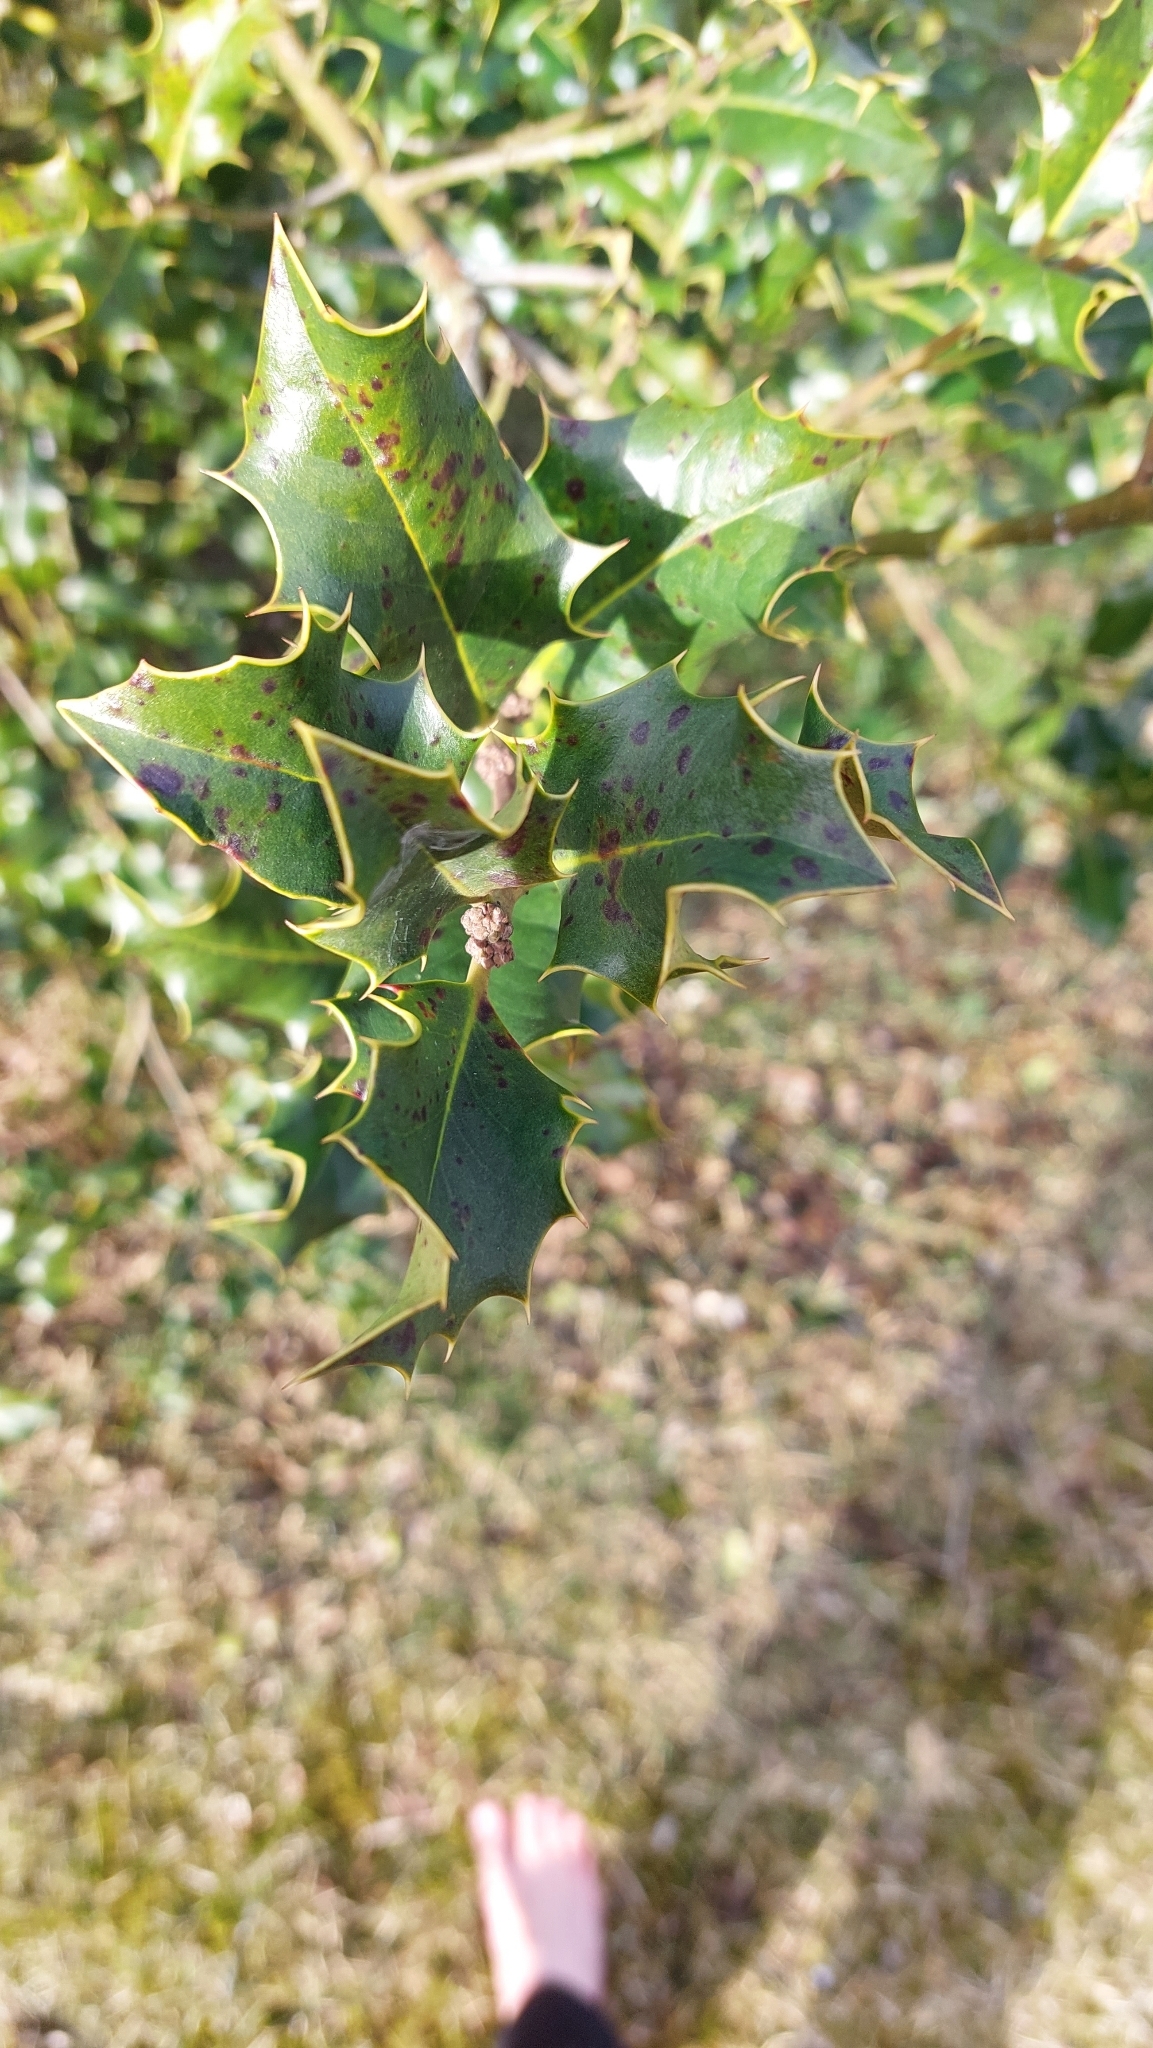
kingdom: Plantae
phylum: Tracheophyta
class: Magnoliopsida
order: Aquifoliales
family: Aquifoliaceae
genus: Ilex
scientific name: Ilex aquifolium
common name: English holly
